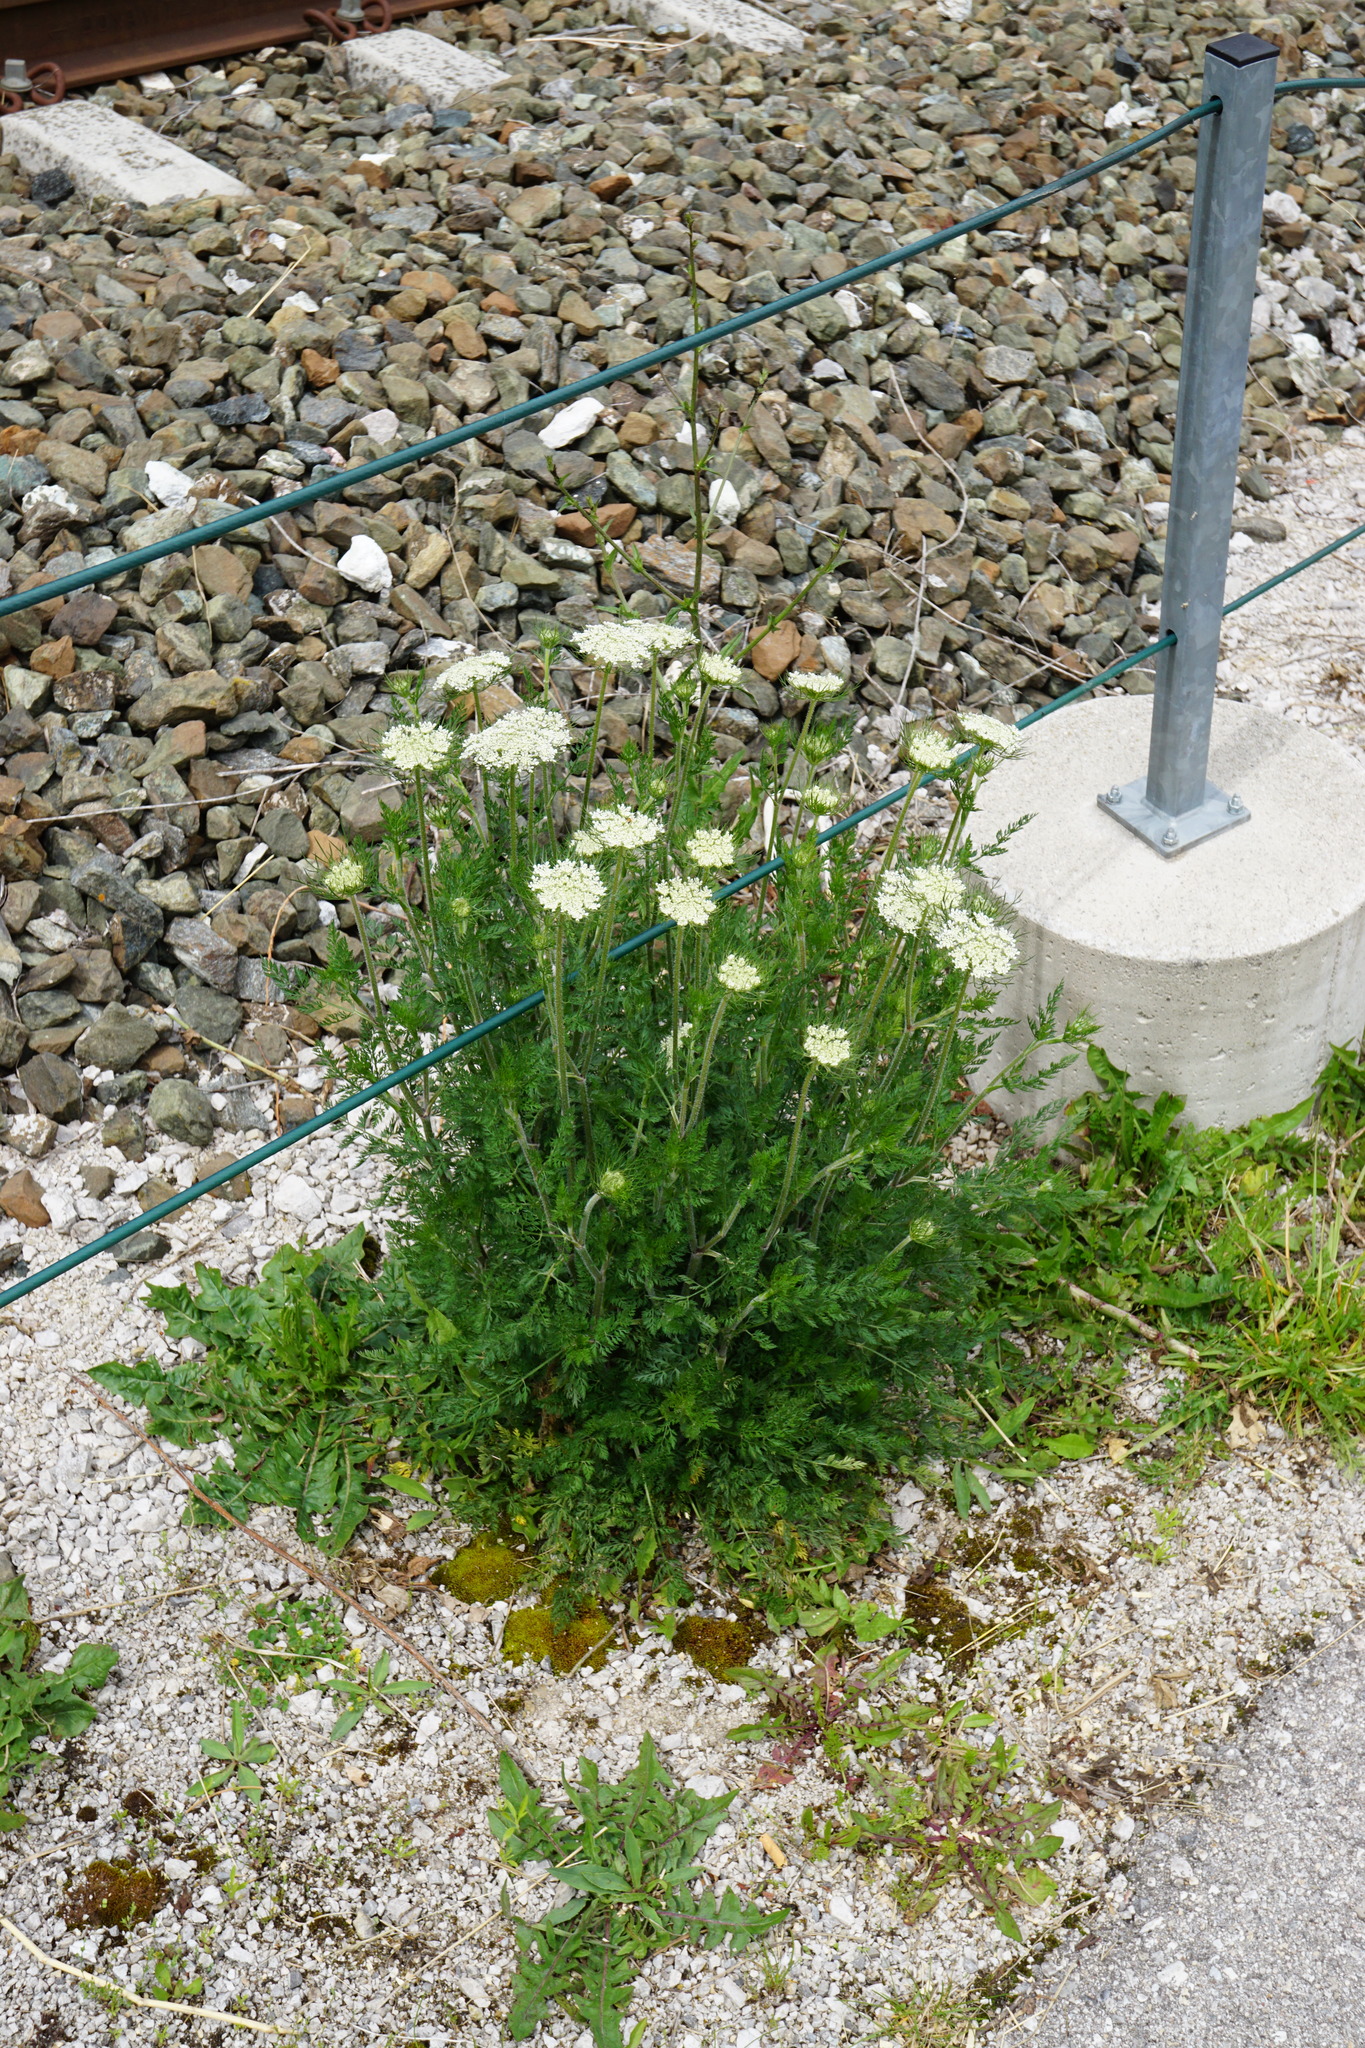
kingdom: Plantae
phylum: Tracheophyta
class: Magnoliopsida
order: Apiales
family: Apiaceae
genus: Daucus
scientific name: Daucus carota
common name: Wild carrot
